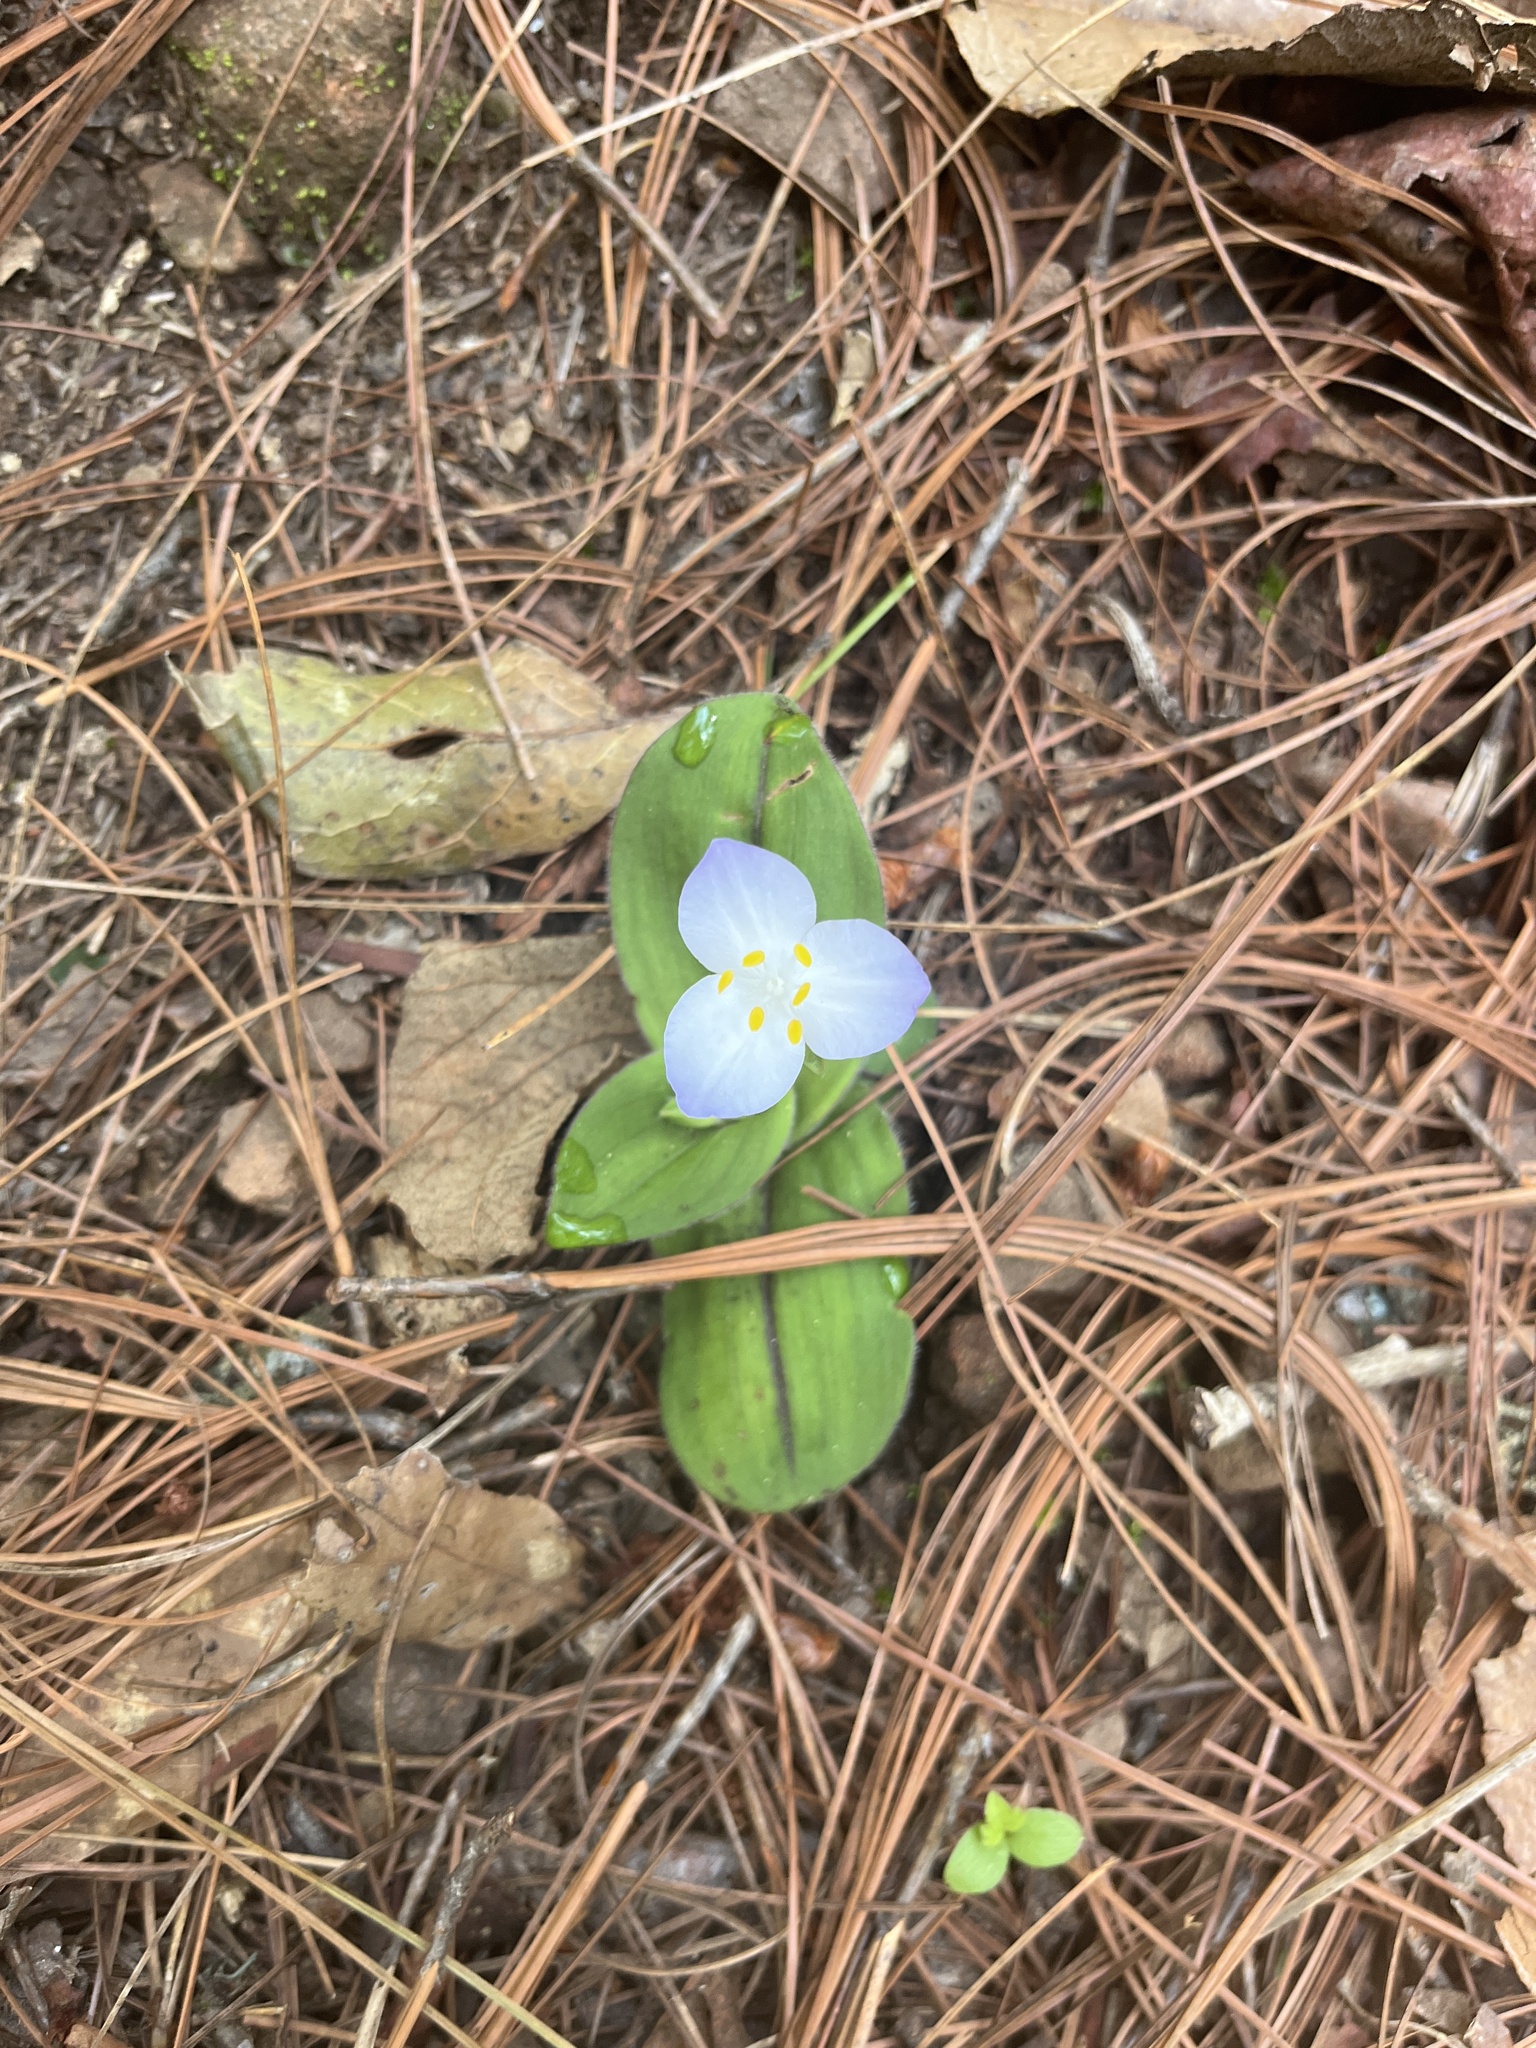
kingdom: Plantae
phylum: Tracheophyta
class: Liliopsida
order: Commelinales
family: Commelinaceae
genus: Matudanthus
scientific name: Matudanthus nanus
